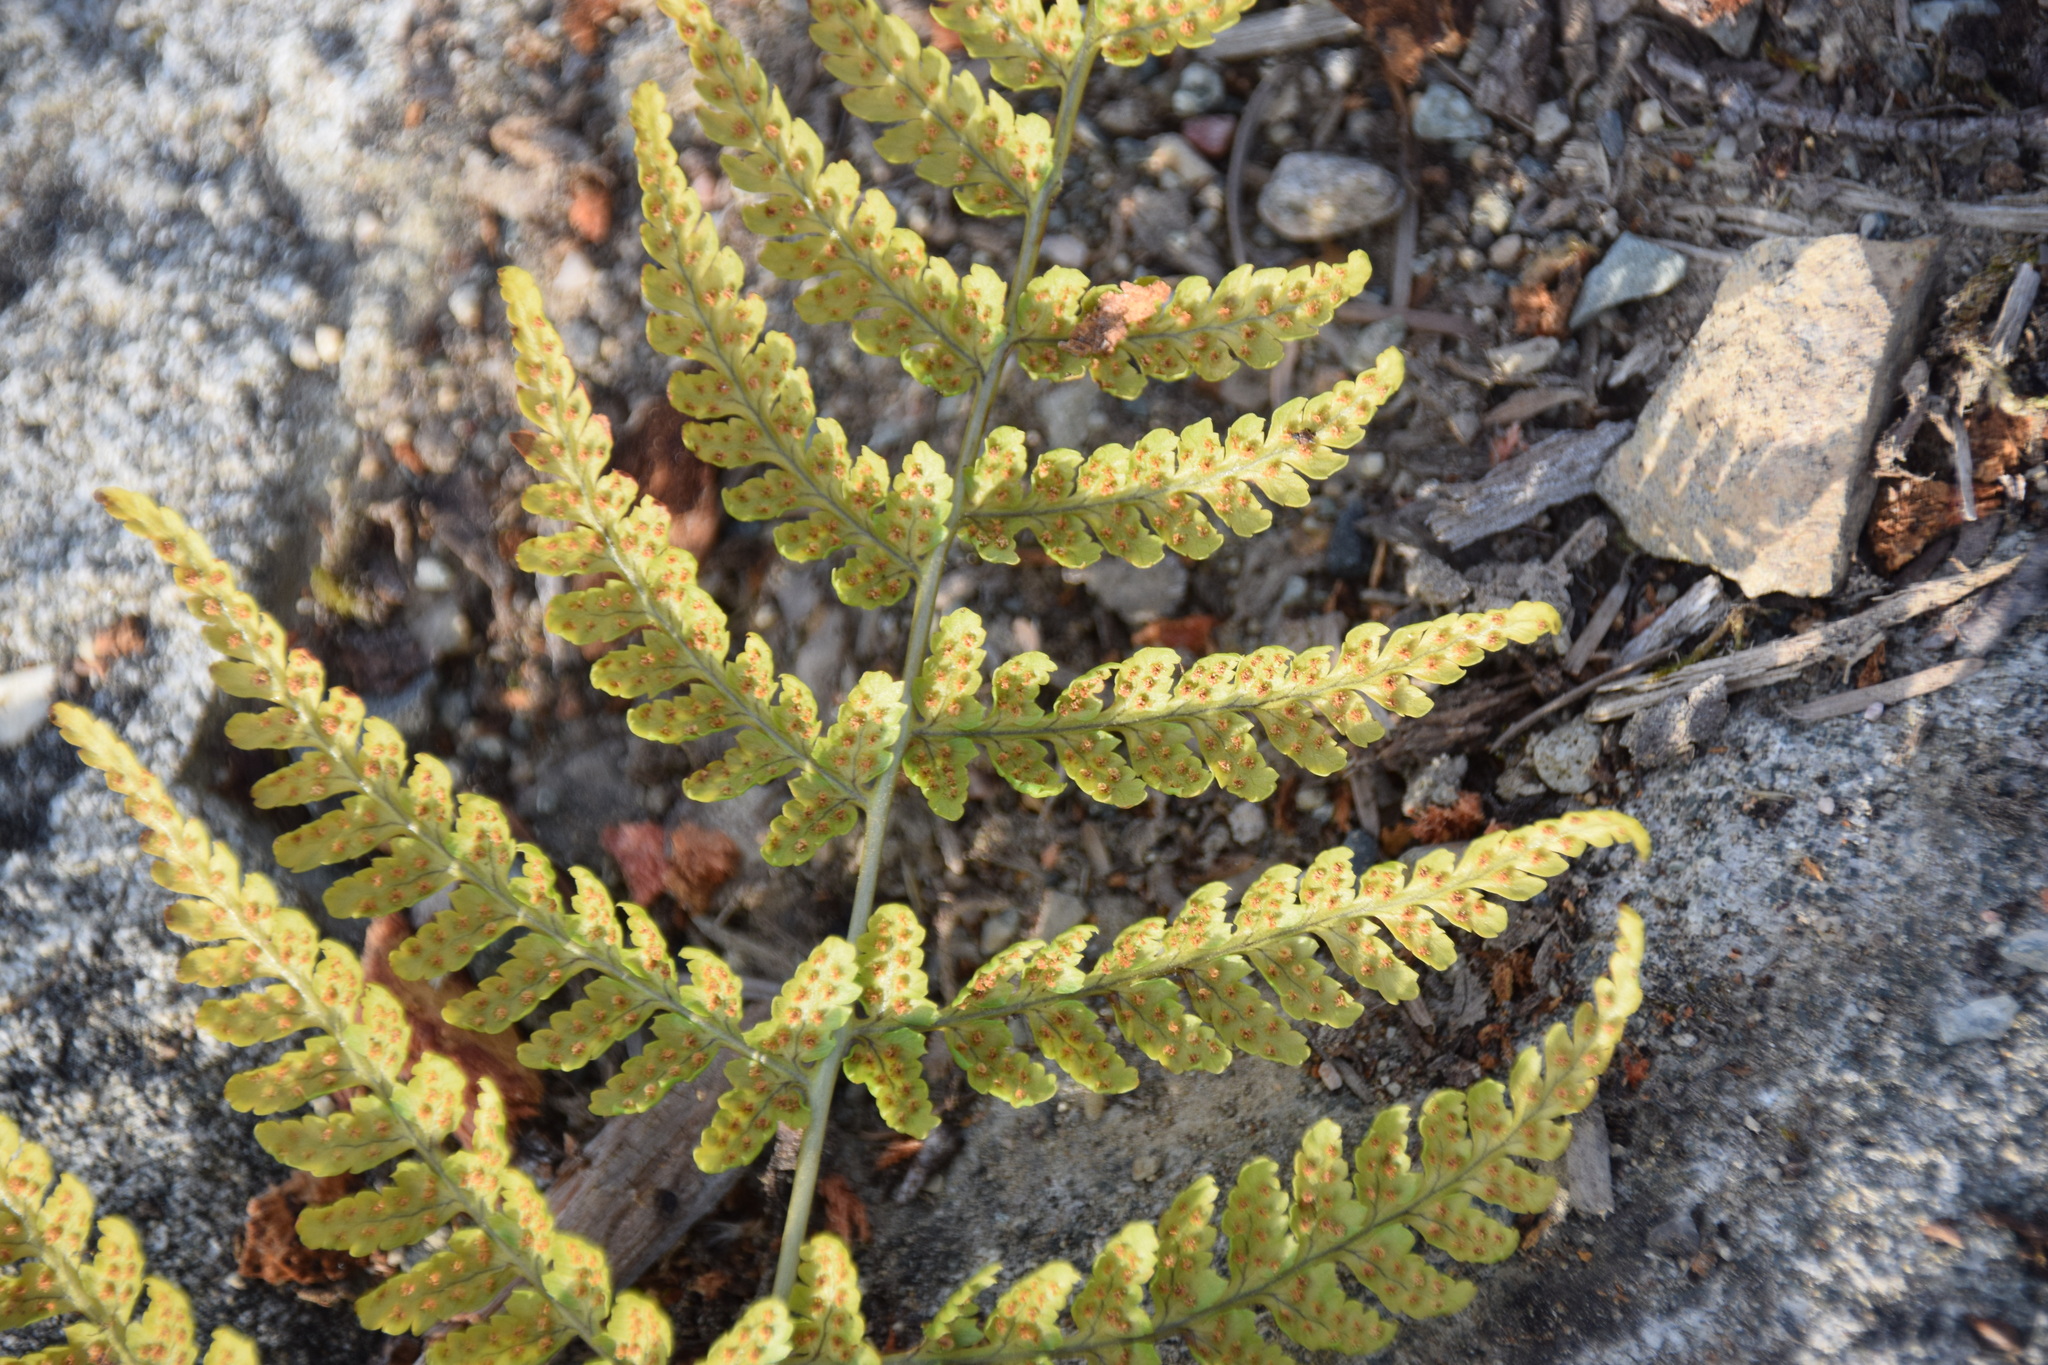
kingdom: Plantae
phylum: Tracheophyta
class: Polypodiopsida
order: Polypodiales
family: Dryopteridaceae
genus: Dryopteris
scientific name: Dryopteris carthusiana
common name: Narrow buckler-fern
